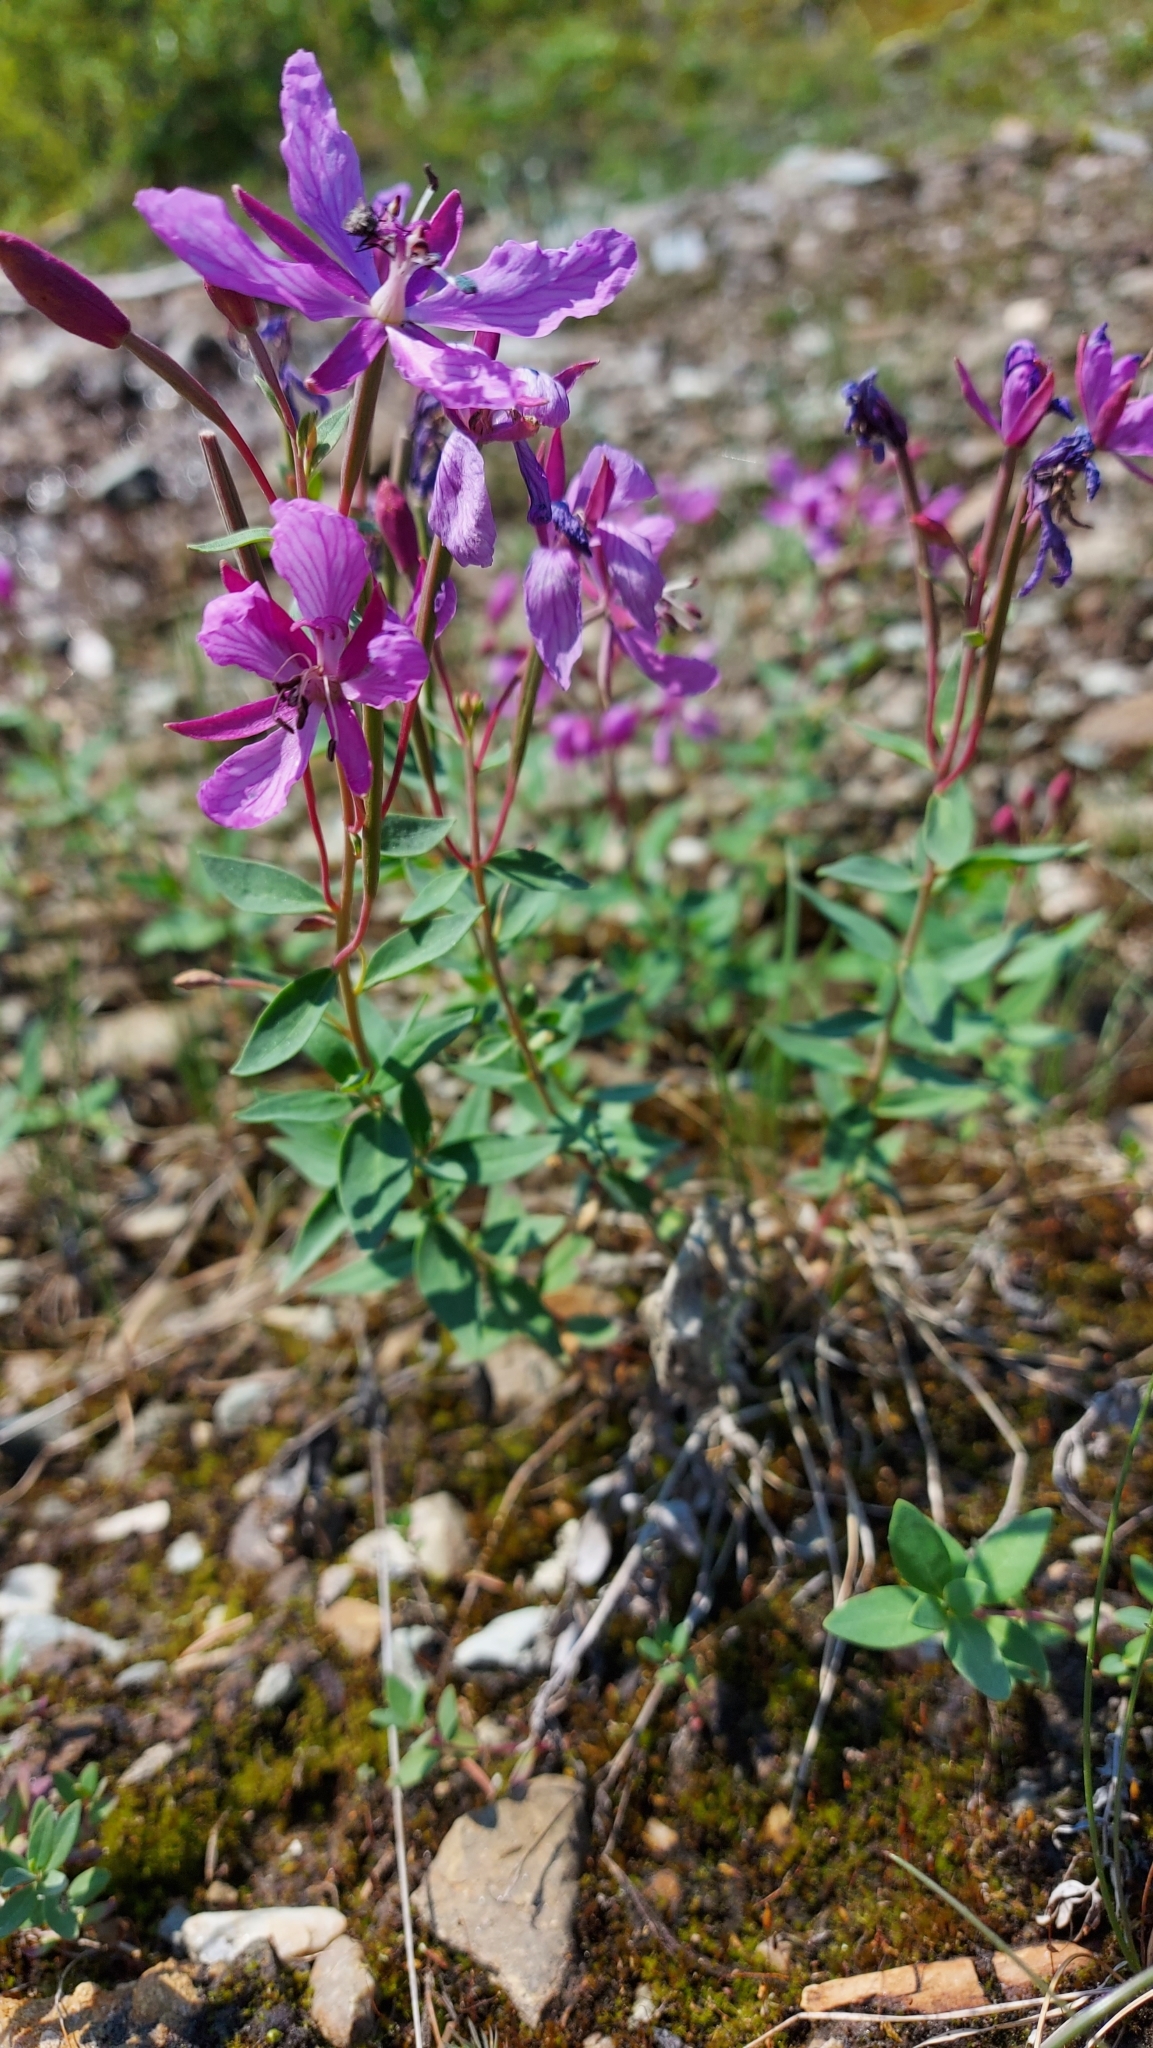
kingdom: Plantae
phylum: Tracheophyta
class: Magnoliopsida
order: Myrtales
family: Onagraceae
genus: Chamaenerion
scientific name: Chamaenerion latifolium
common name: Dwarf fireweed
